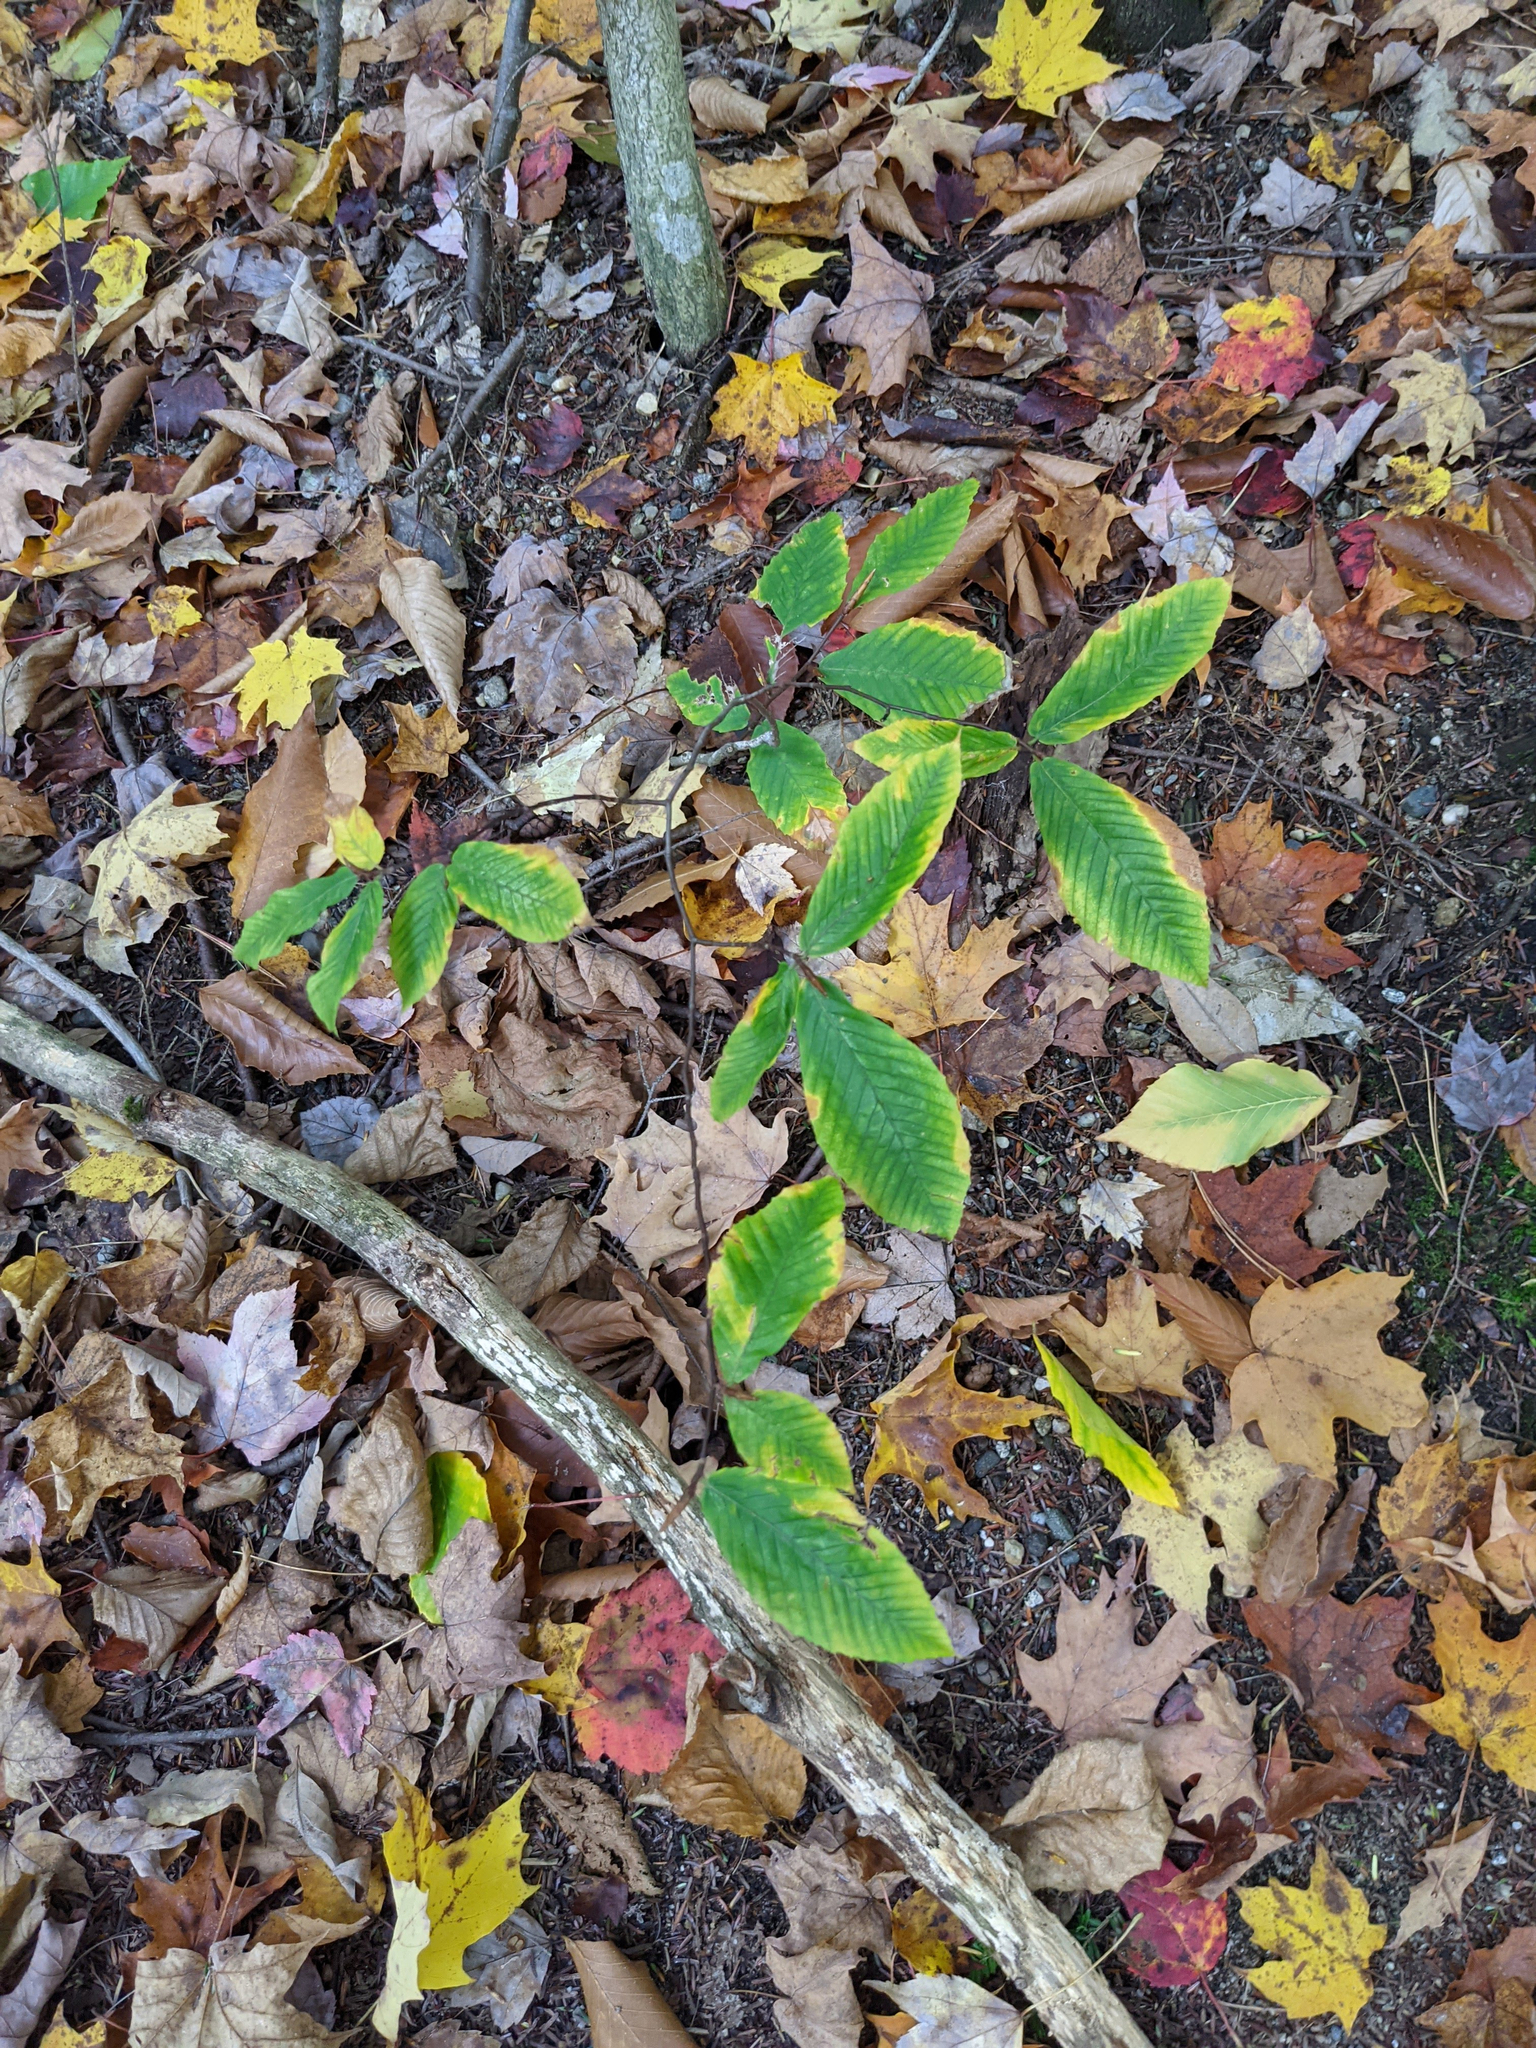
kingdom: Plantae
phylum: Tracheophyta
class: Magnoliopsida
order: Fagales
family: Fagaceae
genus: Fagus
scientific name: Fagus grandifolia
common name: American beech
